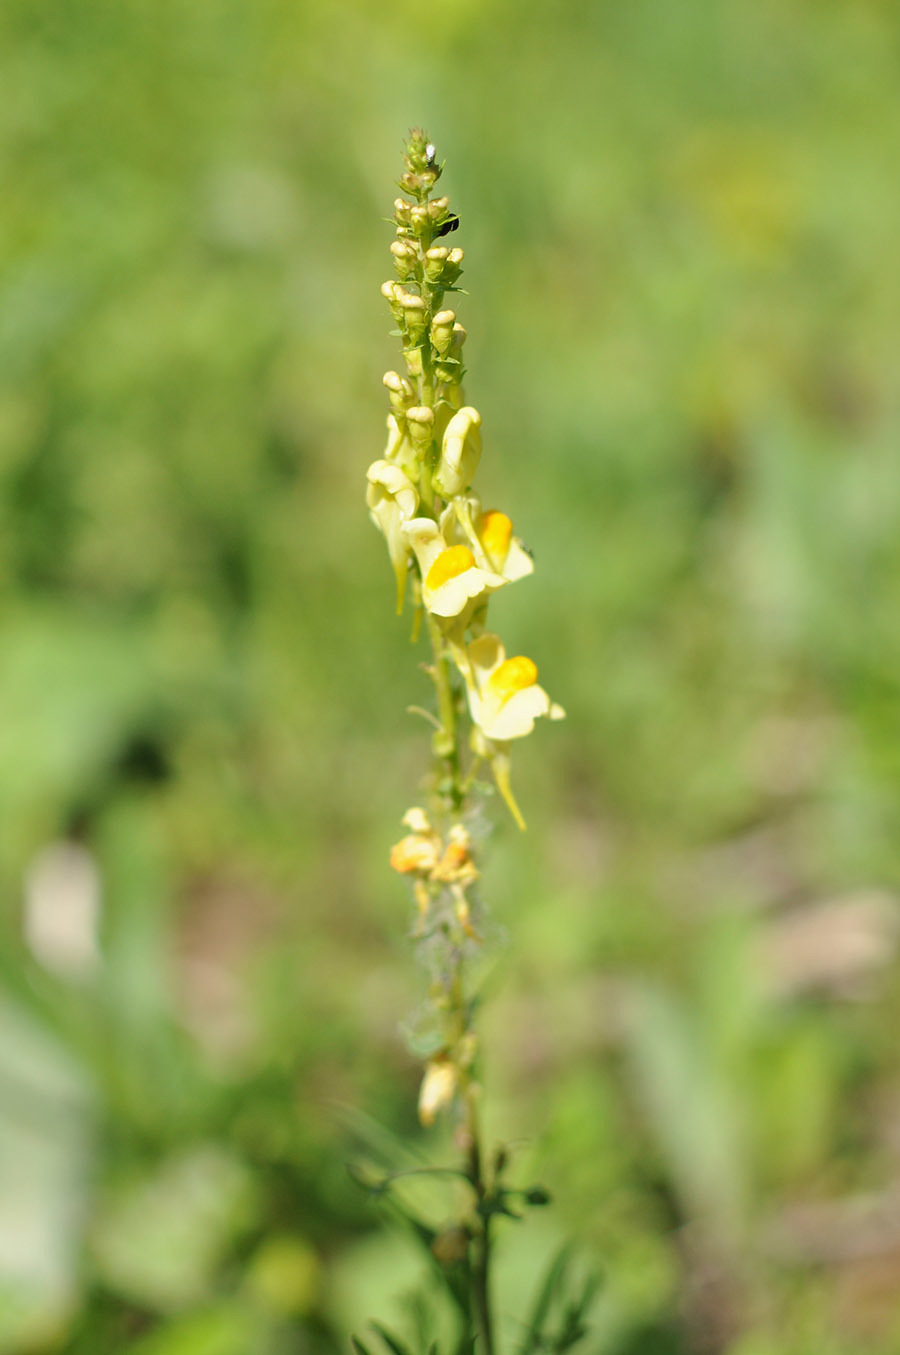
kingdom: Plantae
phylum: Tracheophyta
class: Magnoliopsida
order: Lamiales
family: Plantaginaceae
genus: Linaria
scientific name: Linaria vulgaris
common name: Butter and eggs
